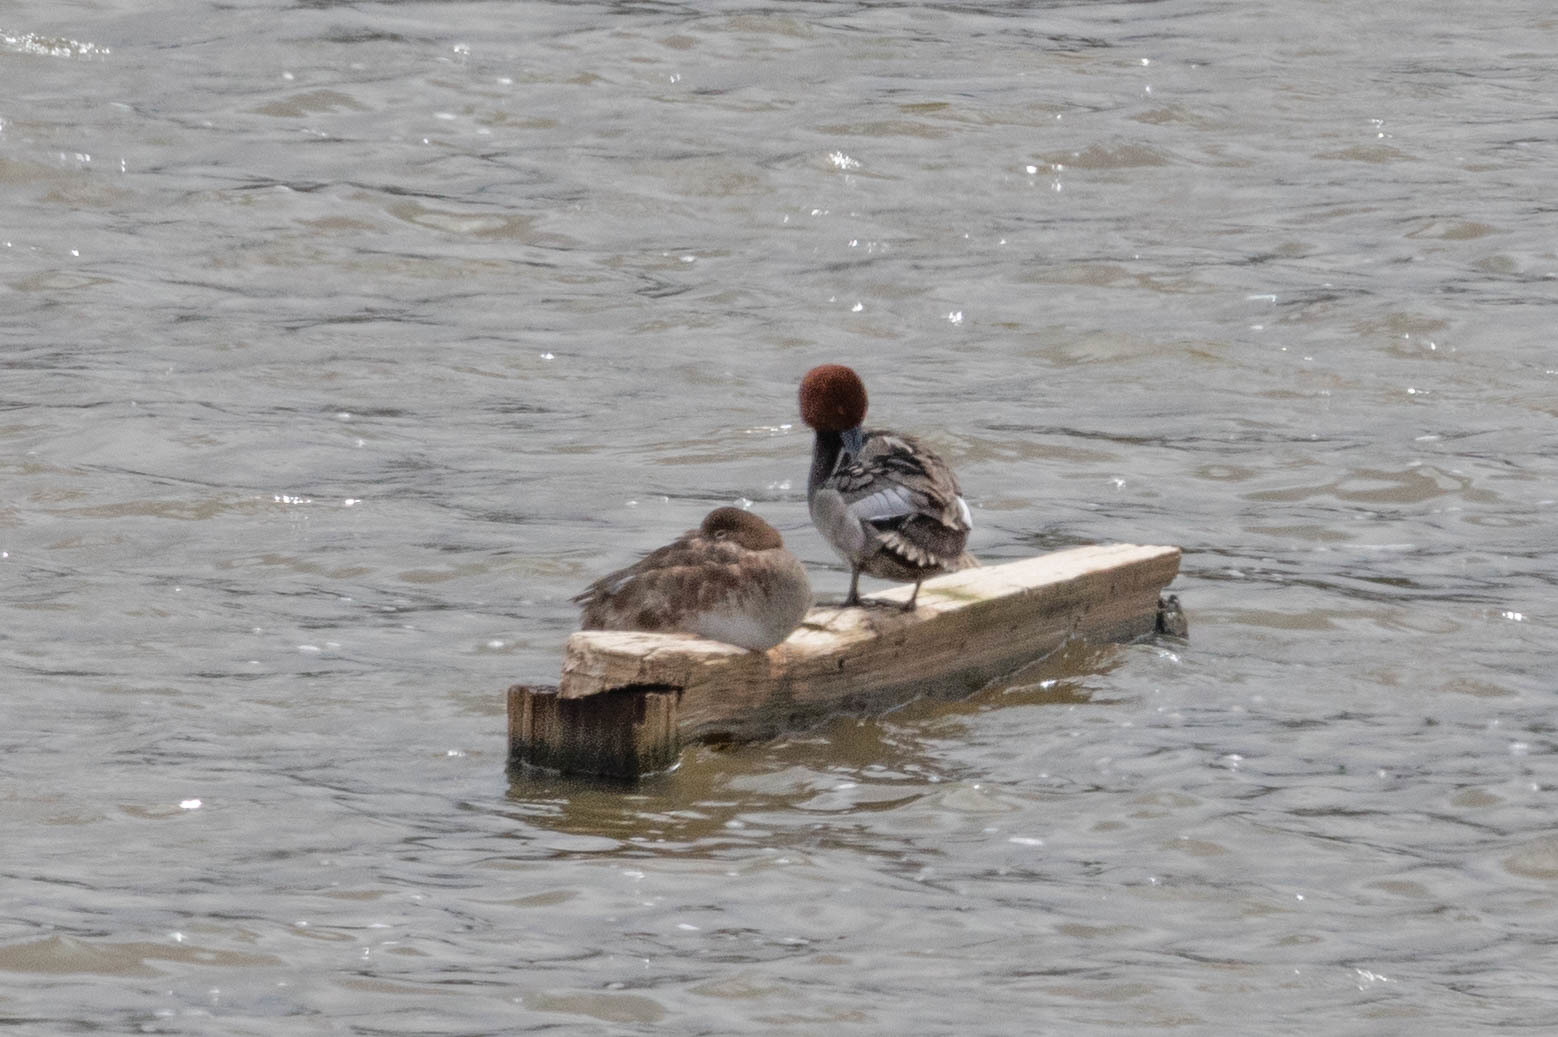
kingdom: Animalia
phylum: Chordata
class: Aves
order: Anseriformes
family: Anatidae
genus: Aythya
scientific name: Aythya americana
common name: Redhead
